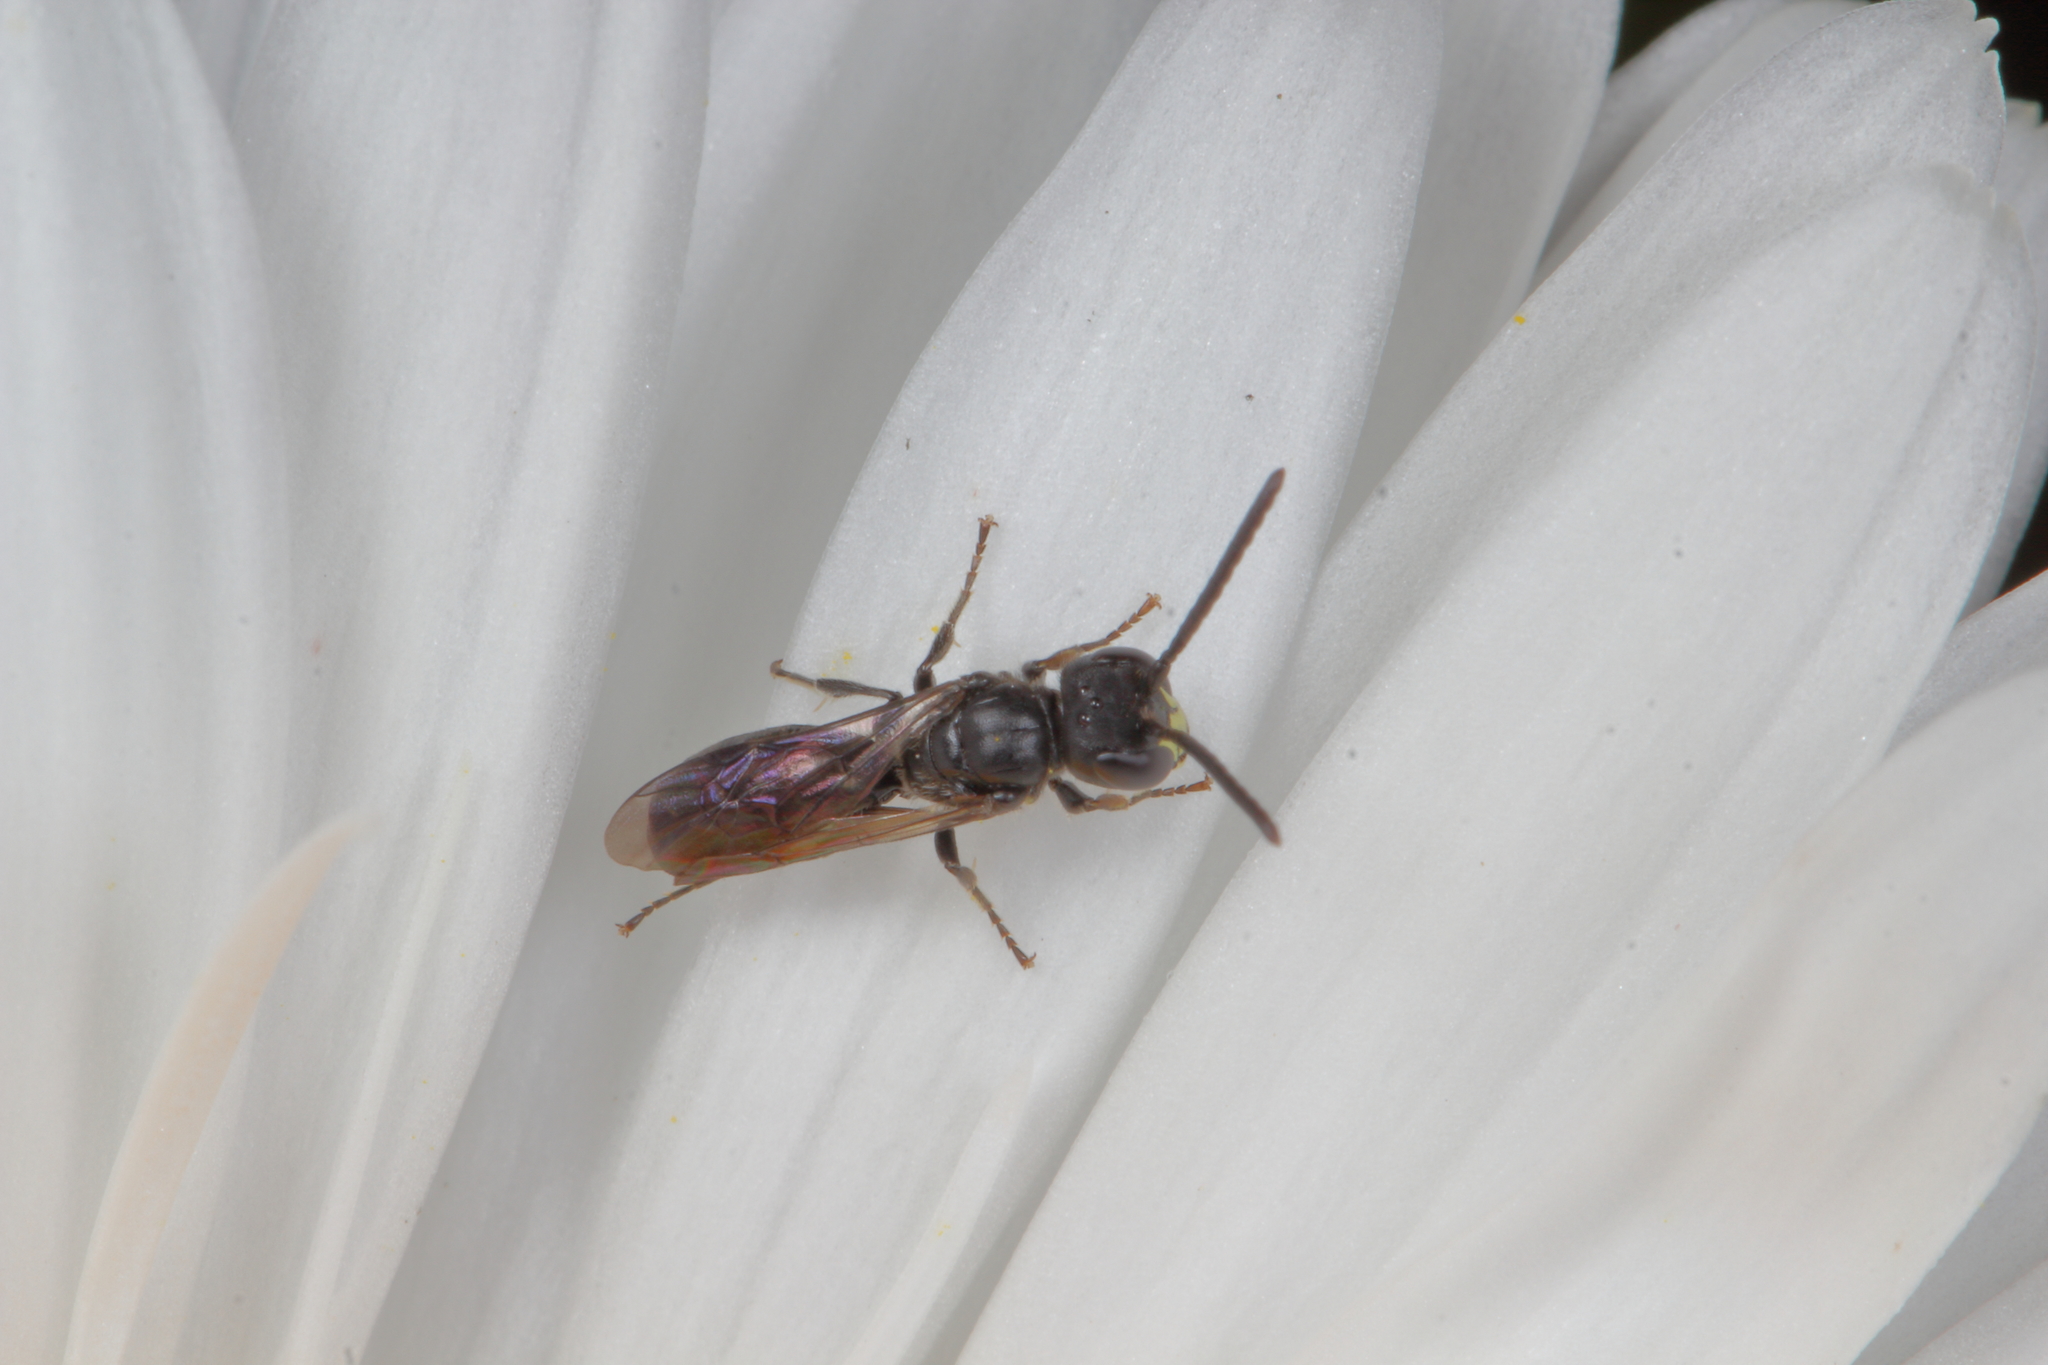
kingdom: Animalia
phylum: Arthropoda
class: Insecta
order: Hymenoptera
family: Colletidae
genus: Hylaeus
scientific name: Hylaeus capitosus
